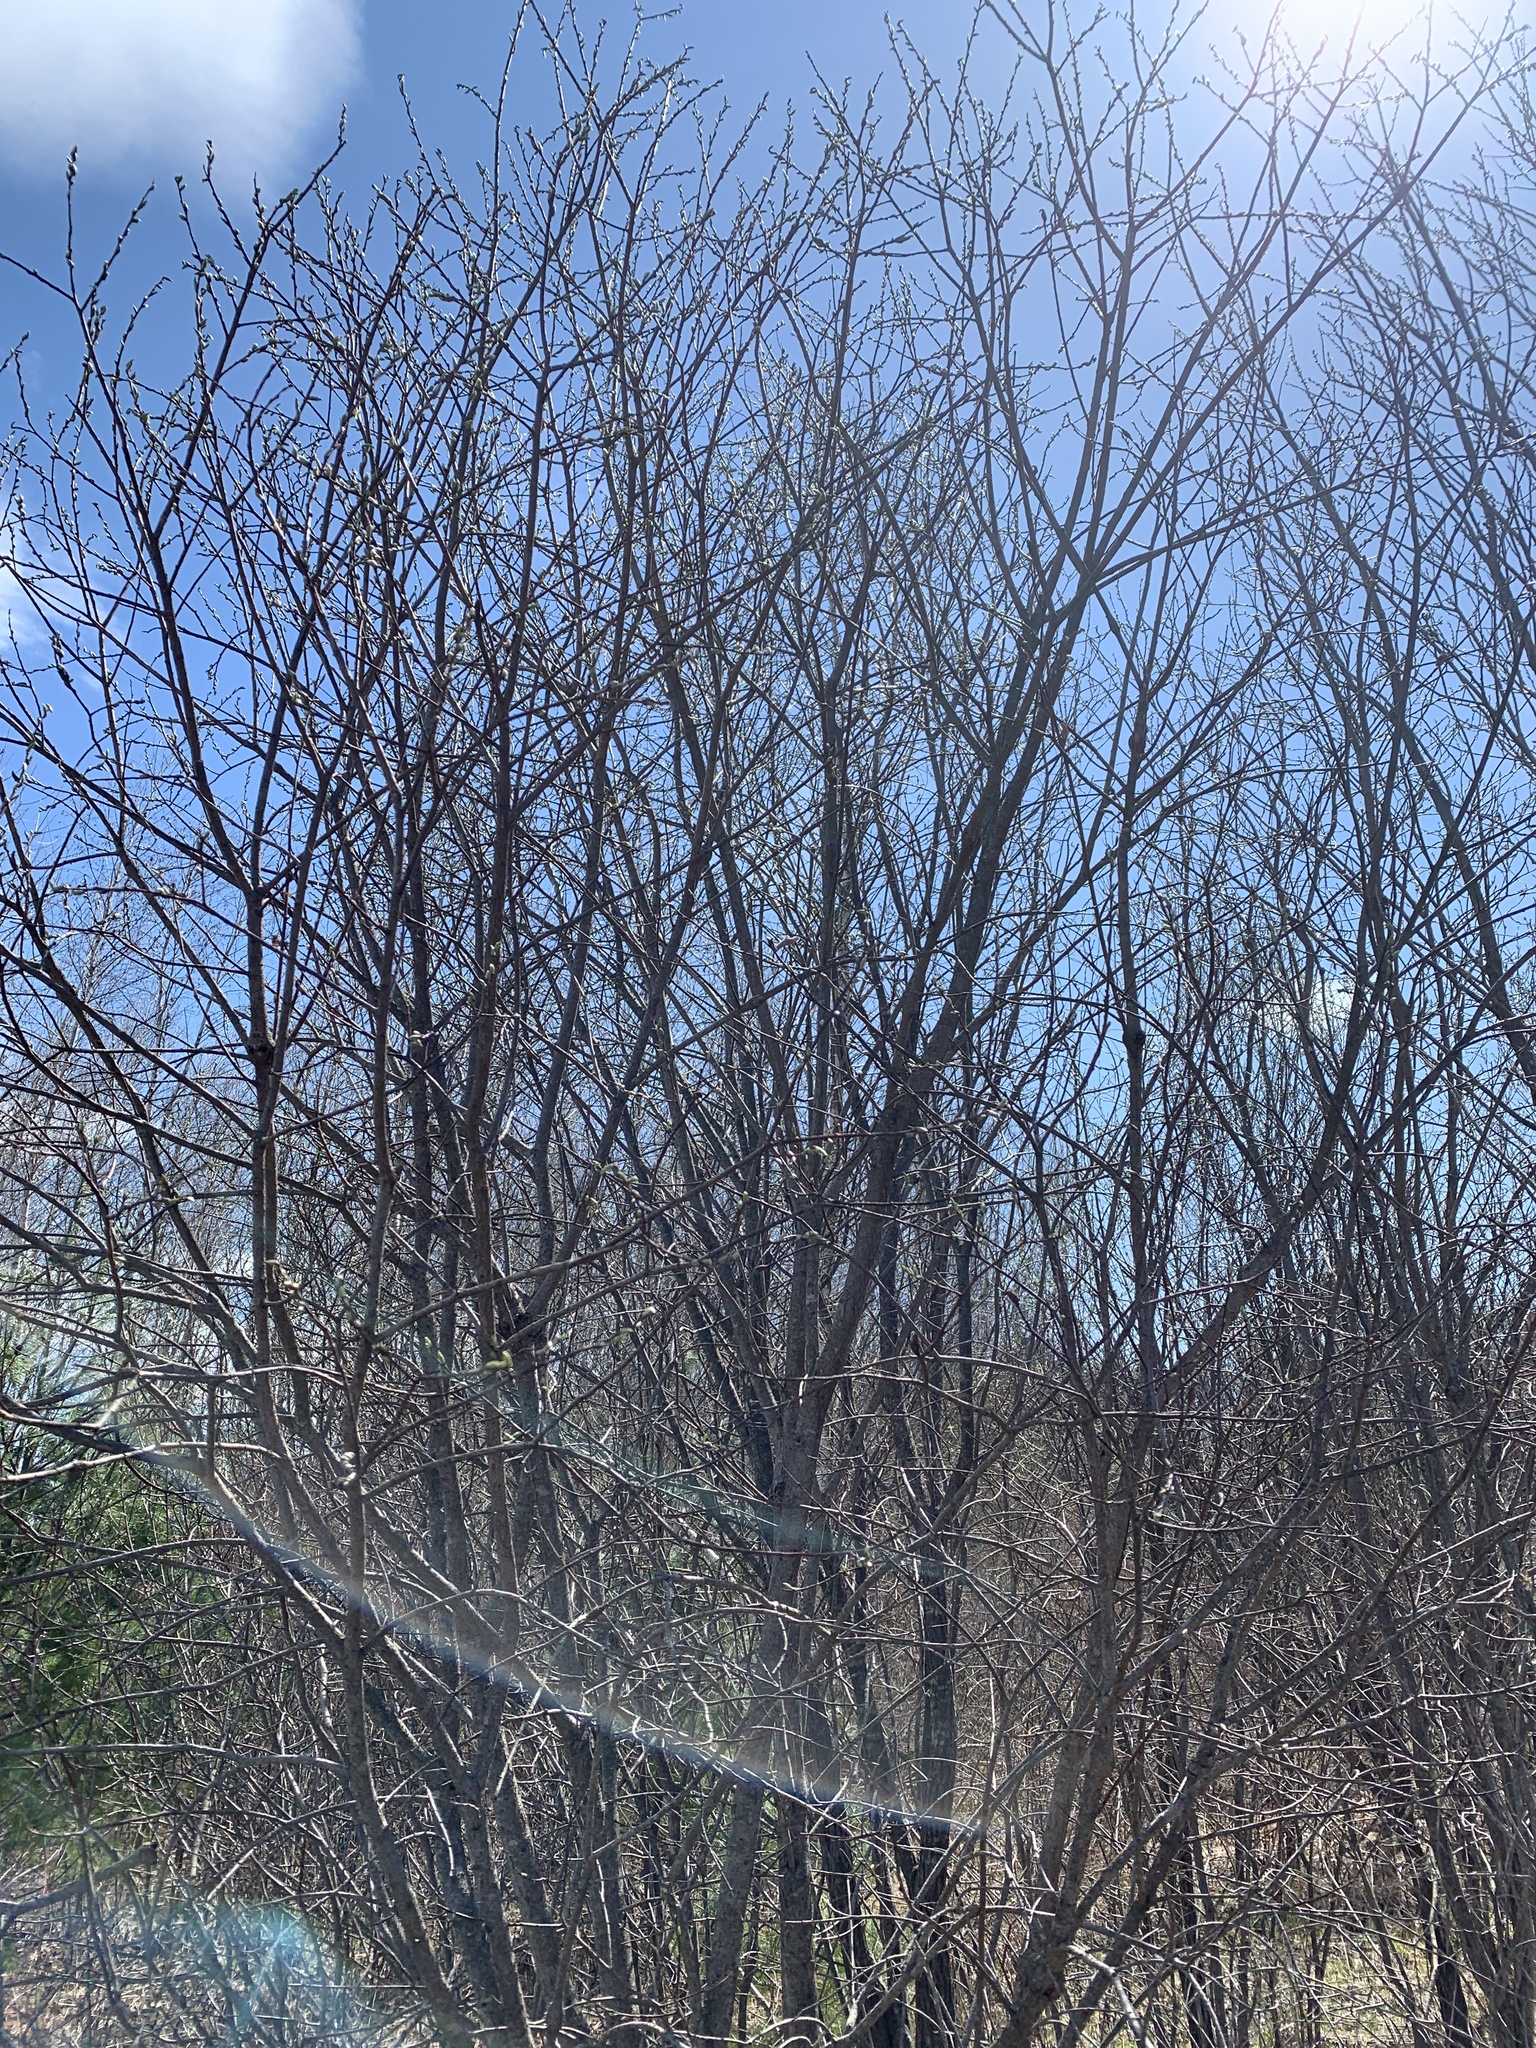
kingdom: Plantae
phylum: Tracheophyta
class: Magnoliopsida
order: Malpighiales
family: Salicaceae
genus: Salix
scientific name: Salix
